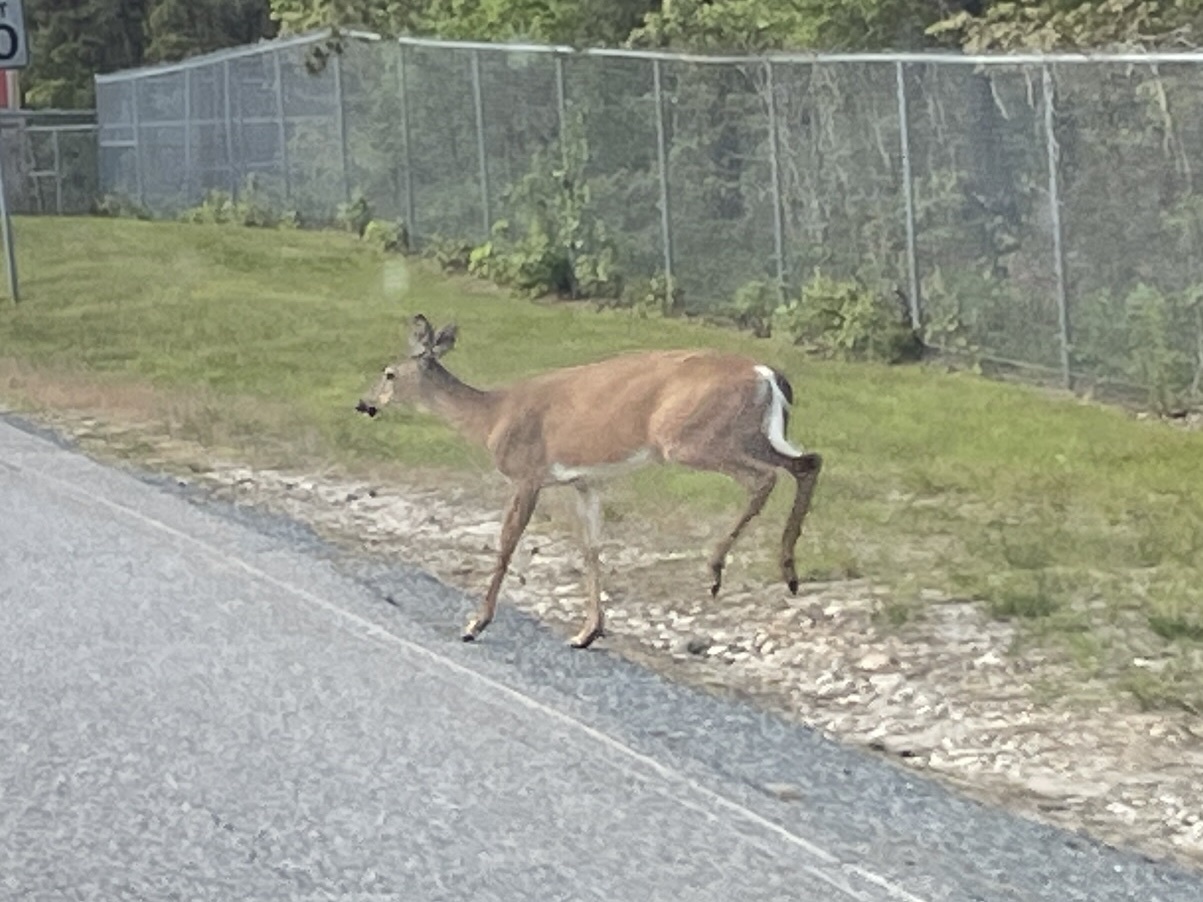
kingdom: Animalia
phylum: Chordata
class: Mammalia
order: Artiodactyla
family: Cervidae
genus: Odocoileus
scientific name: Odocoileus virginianus
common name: White-tailed deer
